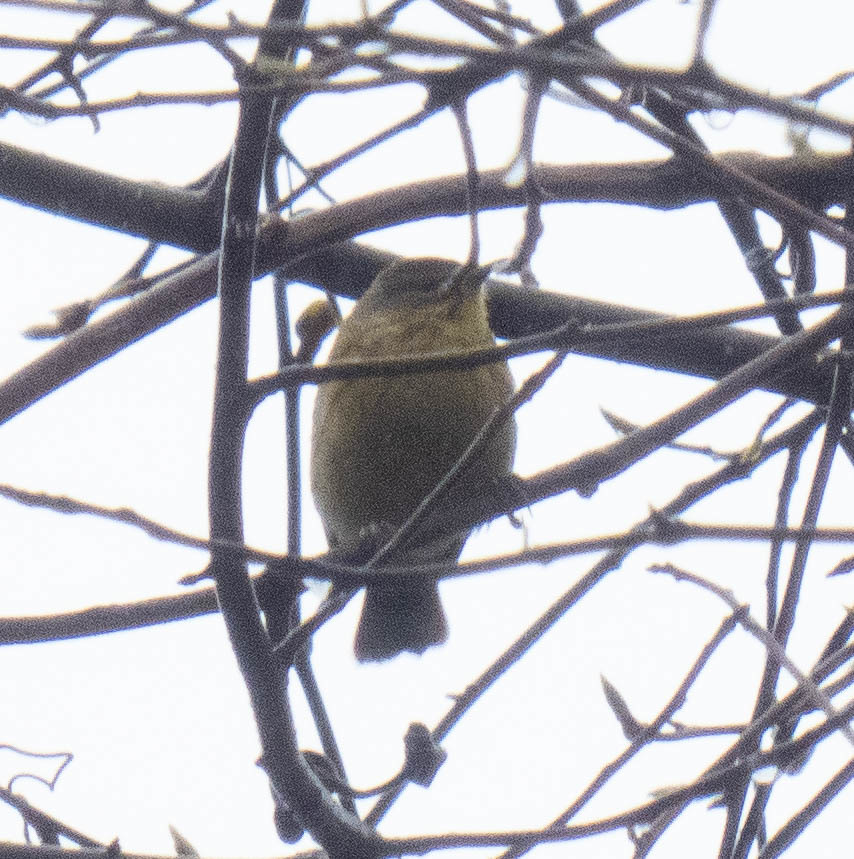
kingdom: Animalia
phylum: Chordata
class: Aves
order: Passeriformes
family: Parulidae
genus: Setophaga
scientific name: Setophaga palmarum
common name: Palm warbler
